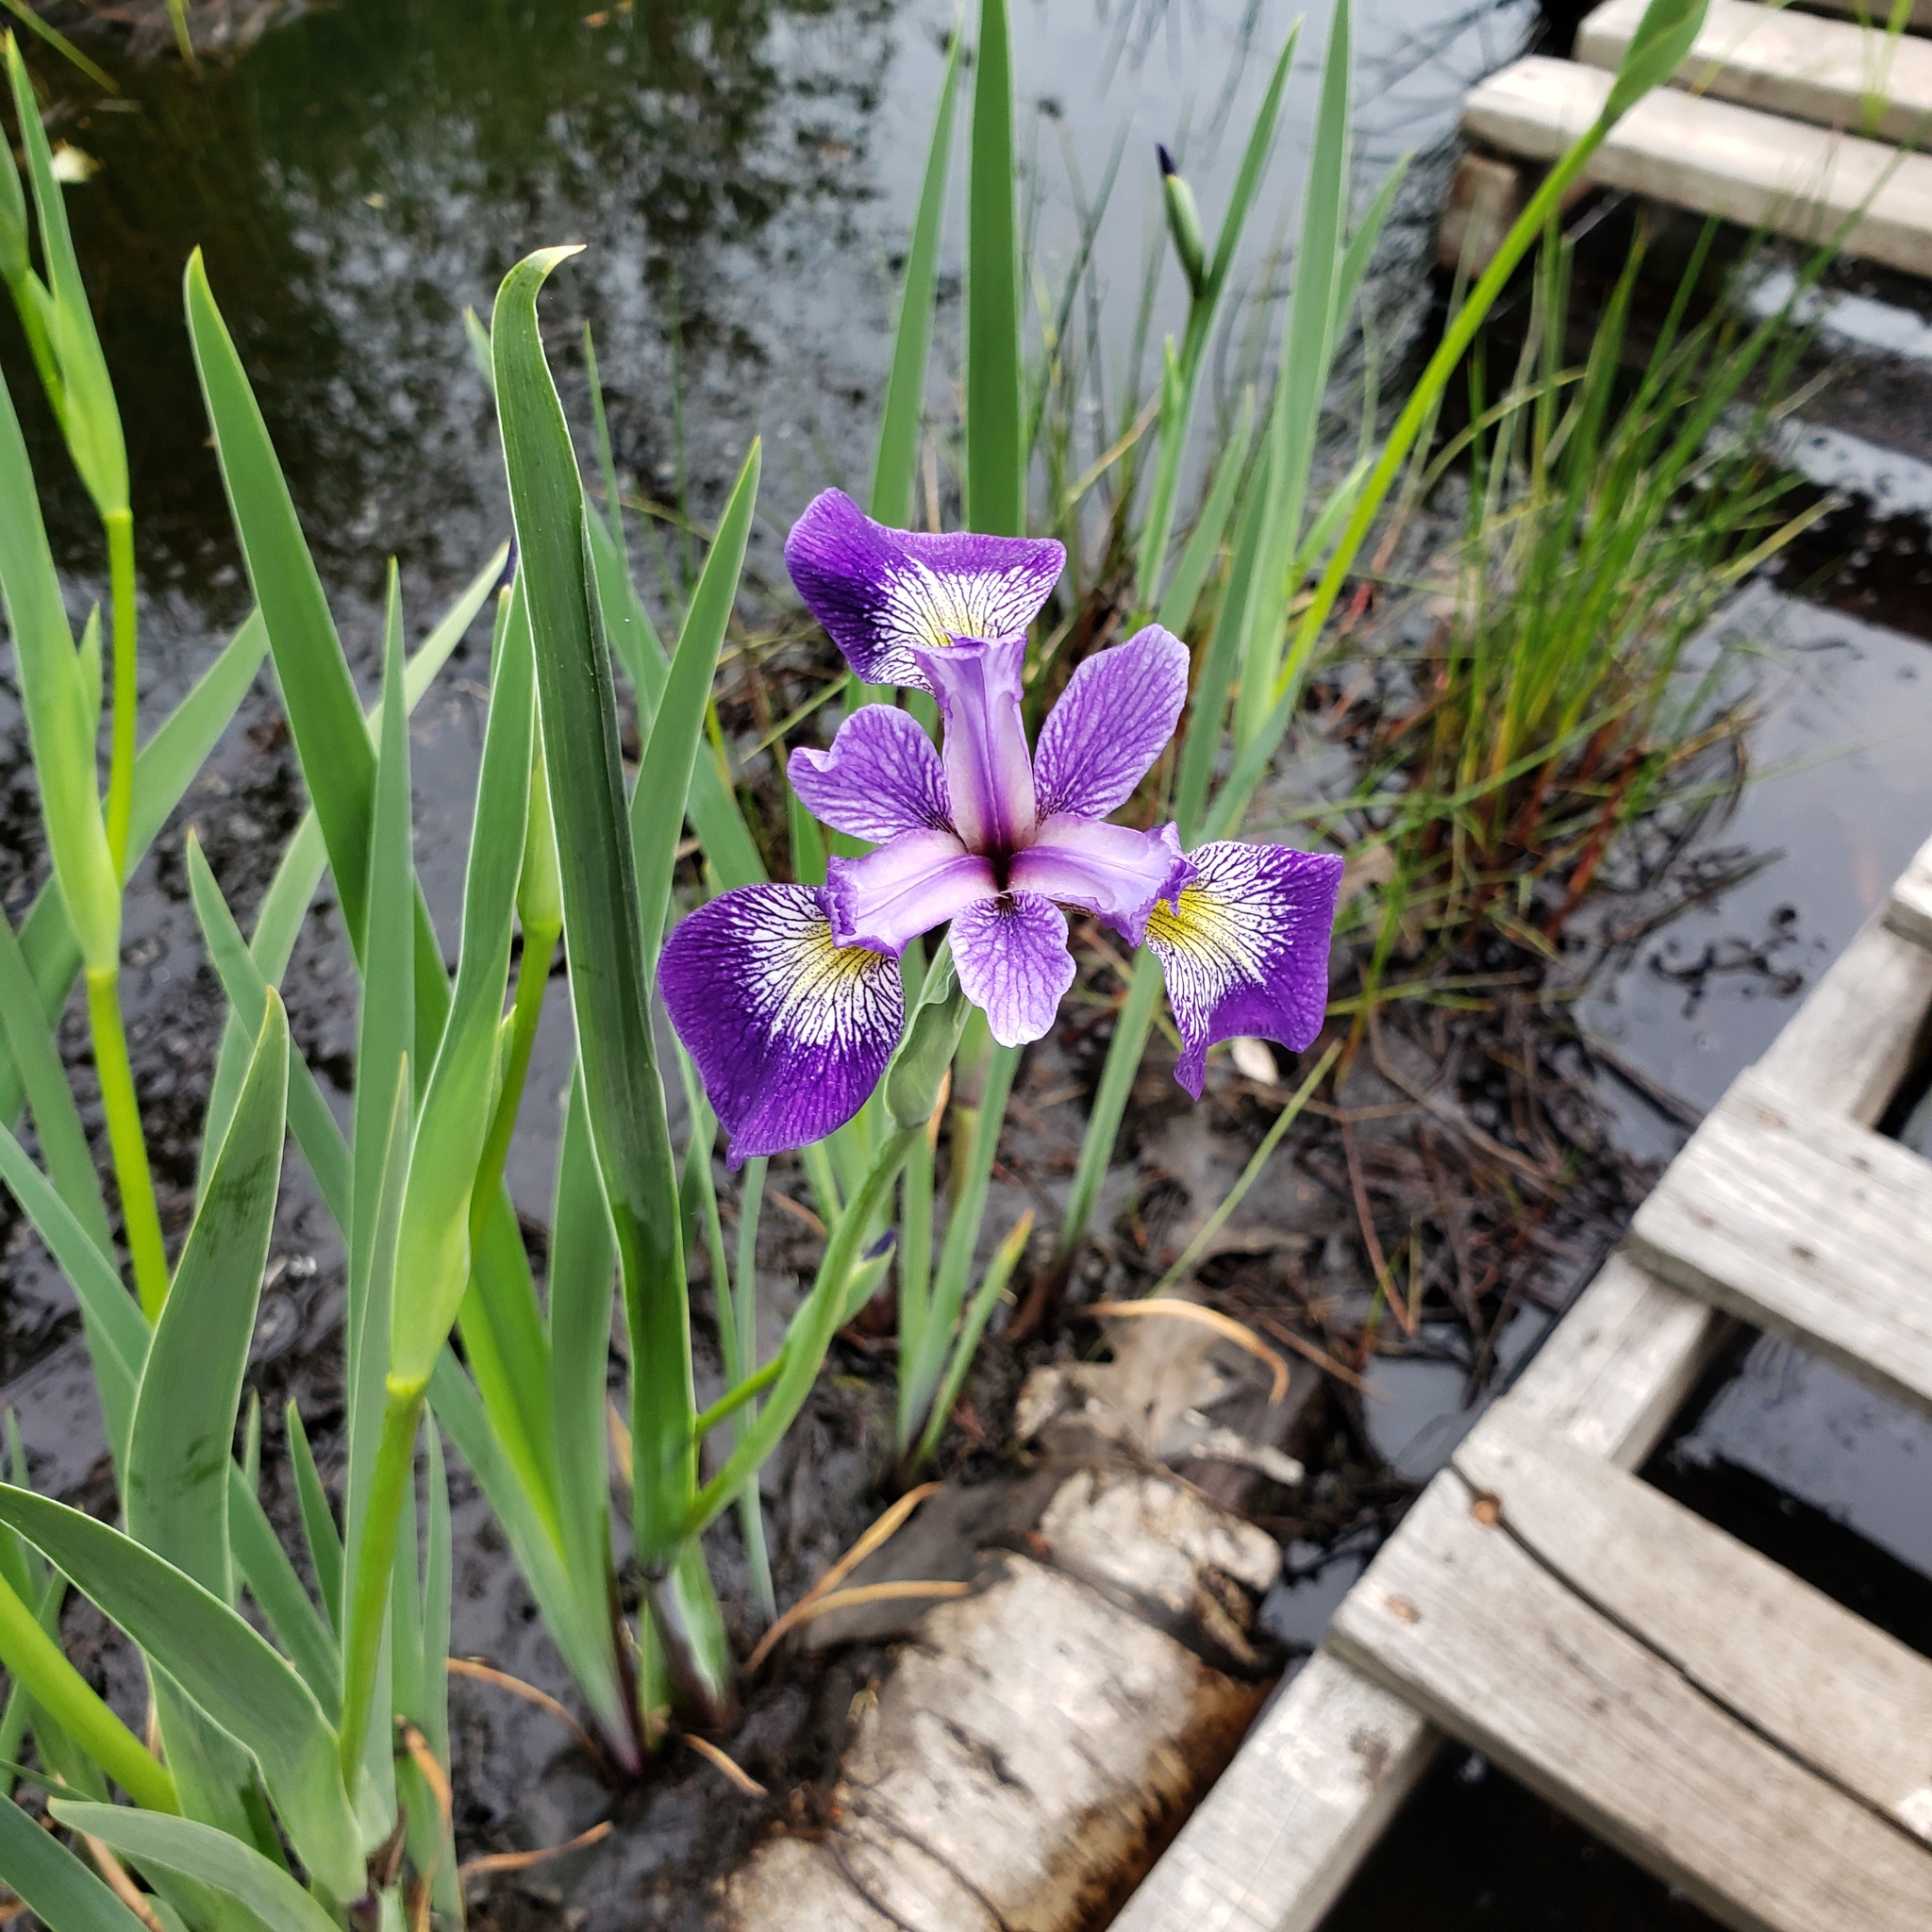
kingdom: Plantae
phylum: Tracheophyta
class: Liliopsida
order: Asparagales
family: Iridaceae
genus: Iris
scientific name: Iris versicolor
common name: Purple iris
